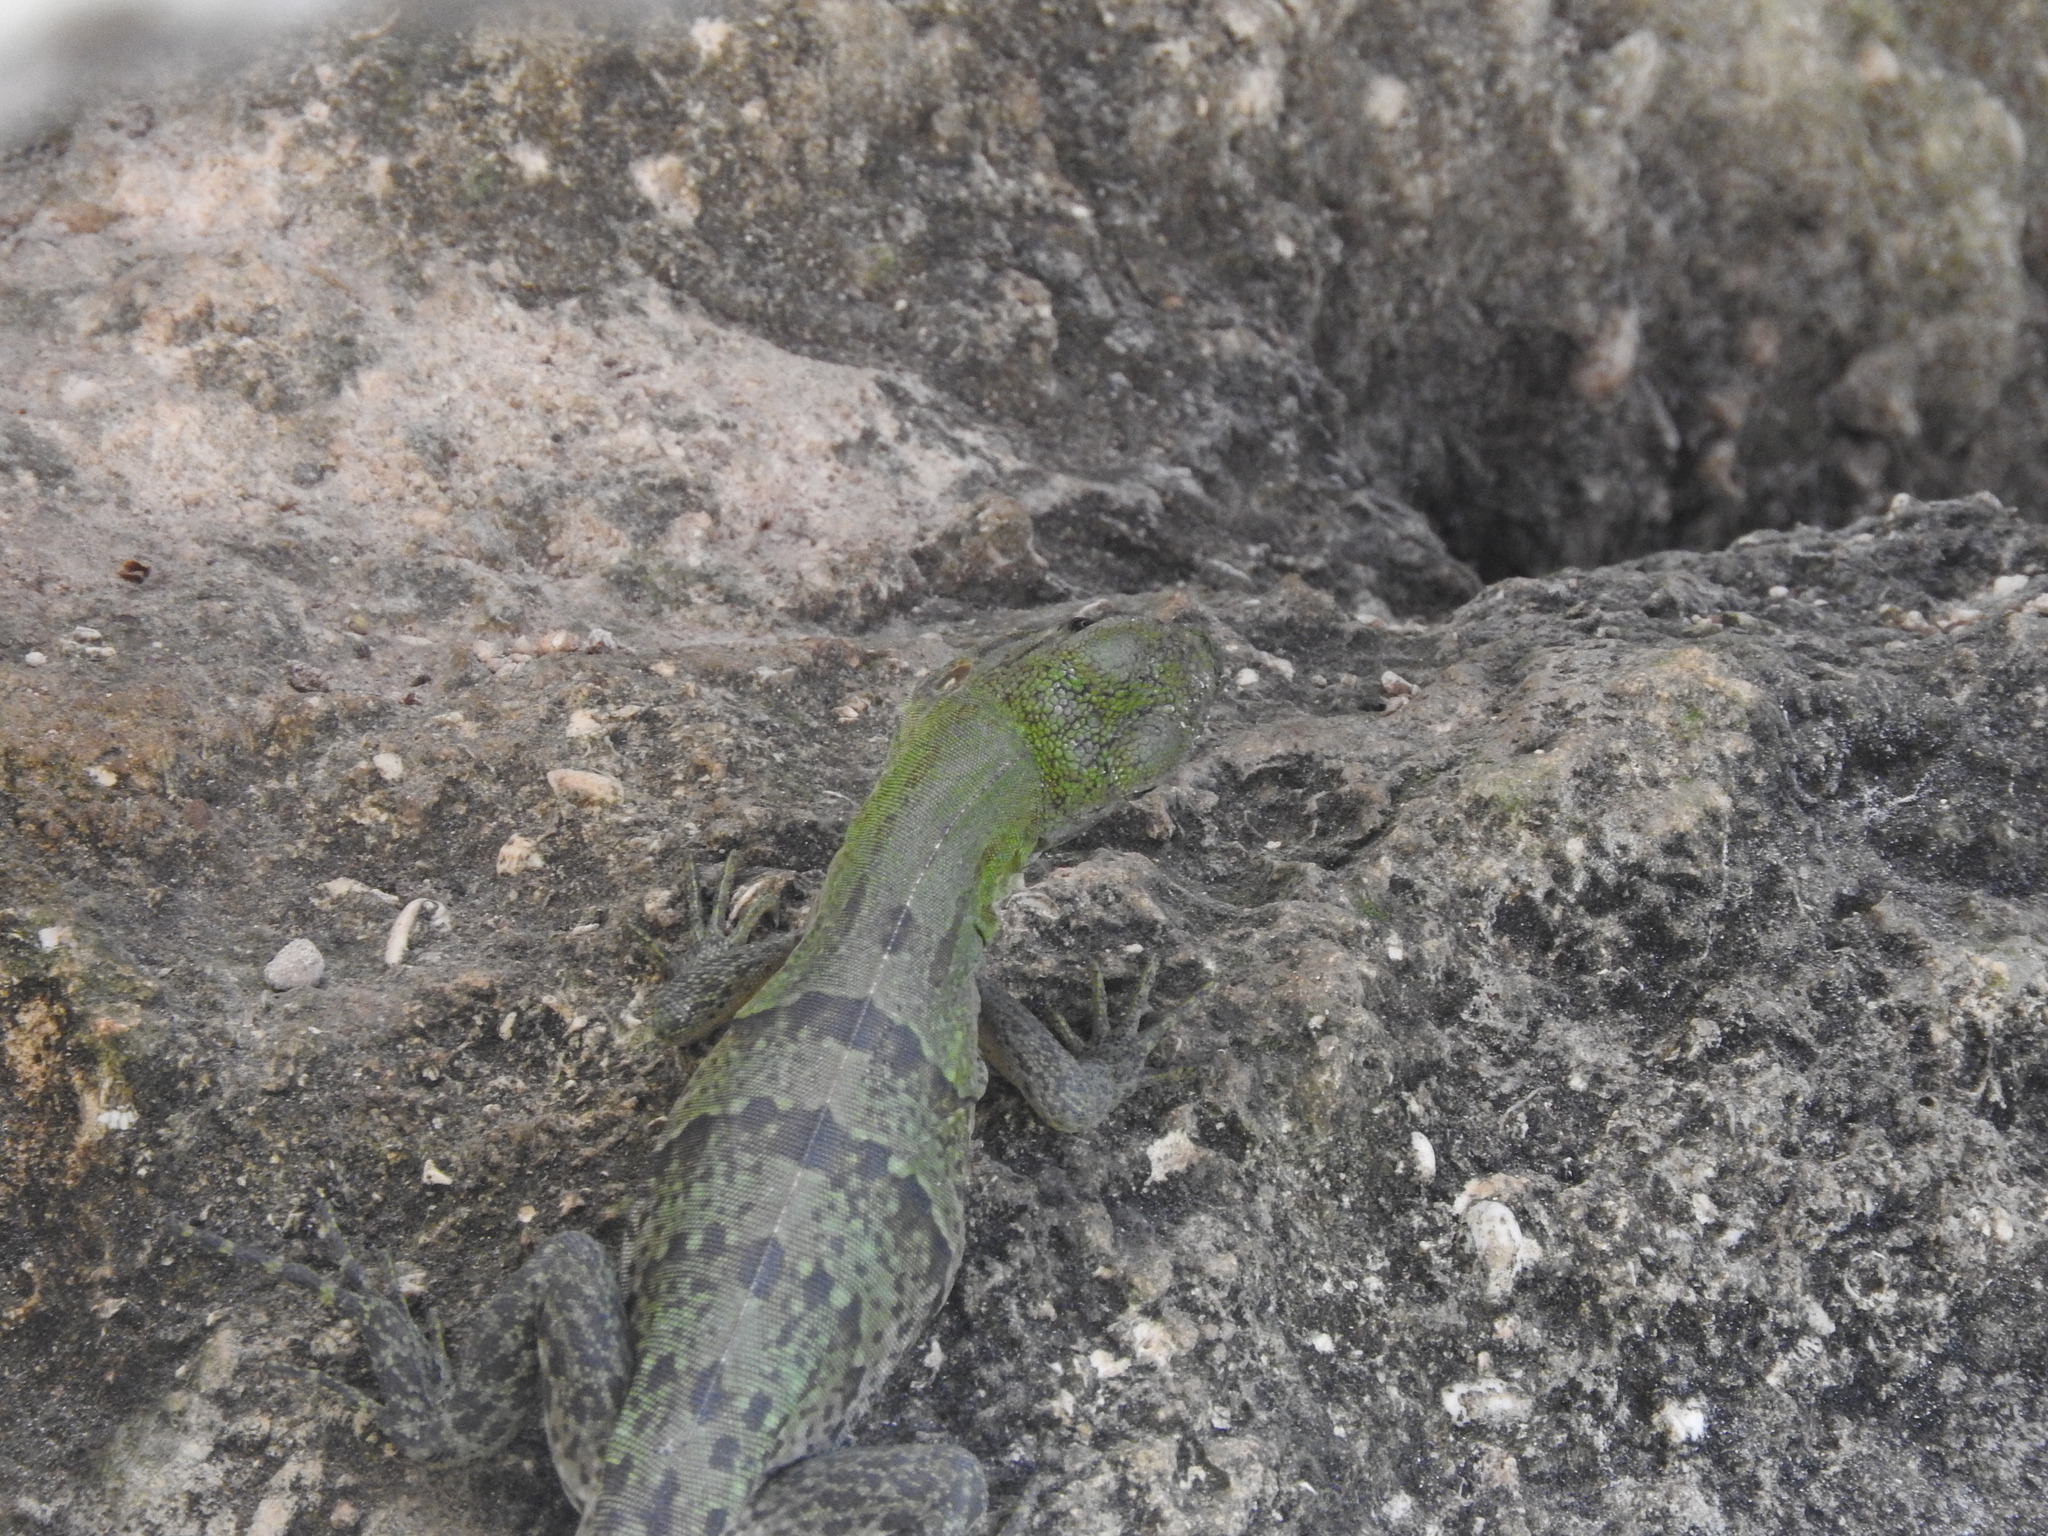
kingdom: Animalia
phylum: Chordata
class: Squamata
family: Iguanidae
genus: Ctenosaura
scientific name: Ctenosaura similis
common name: Black spiny-tailed iguana
